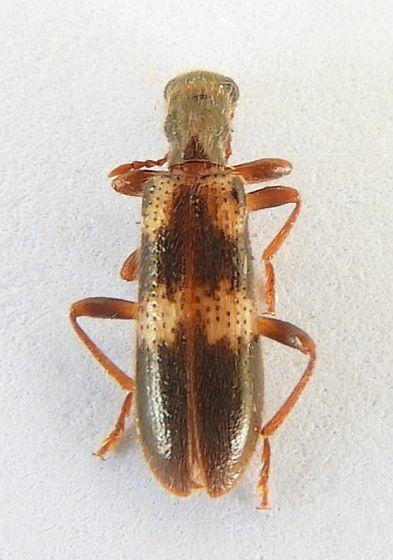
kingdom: Animalia
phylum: Arthropoda
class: Insecta
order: Coleoptera
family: Cleridae
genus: Cymatodera
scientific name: Cymatodera laevicollis
